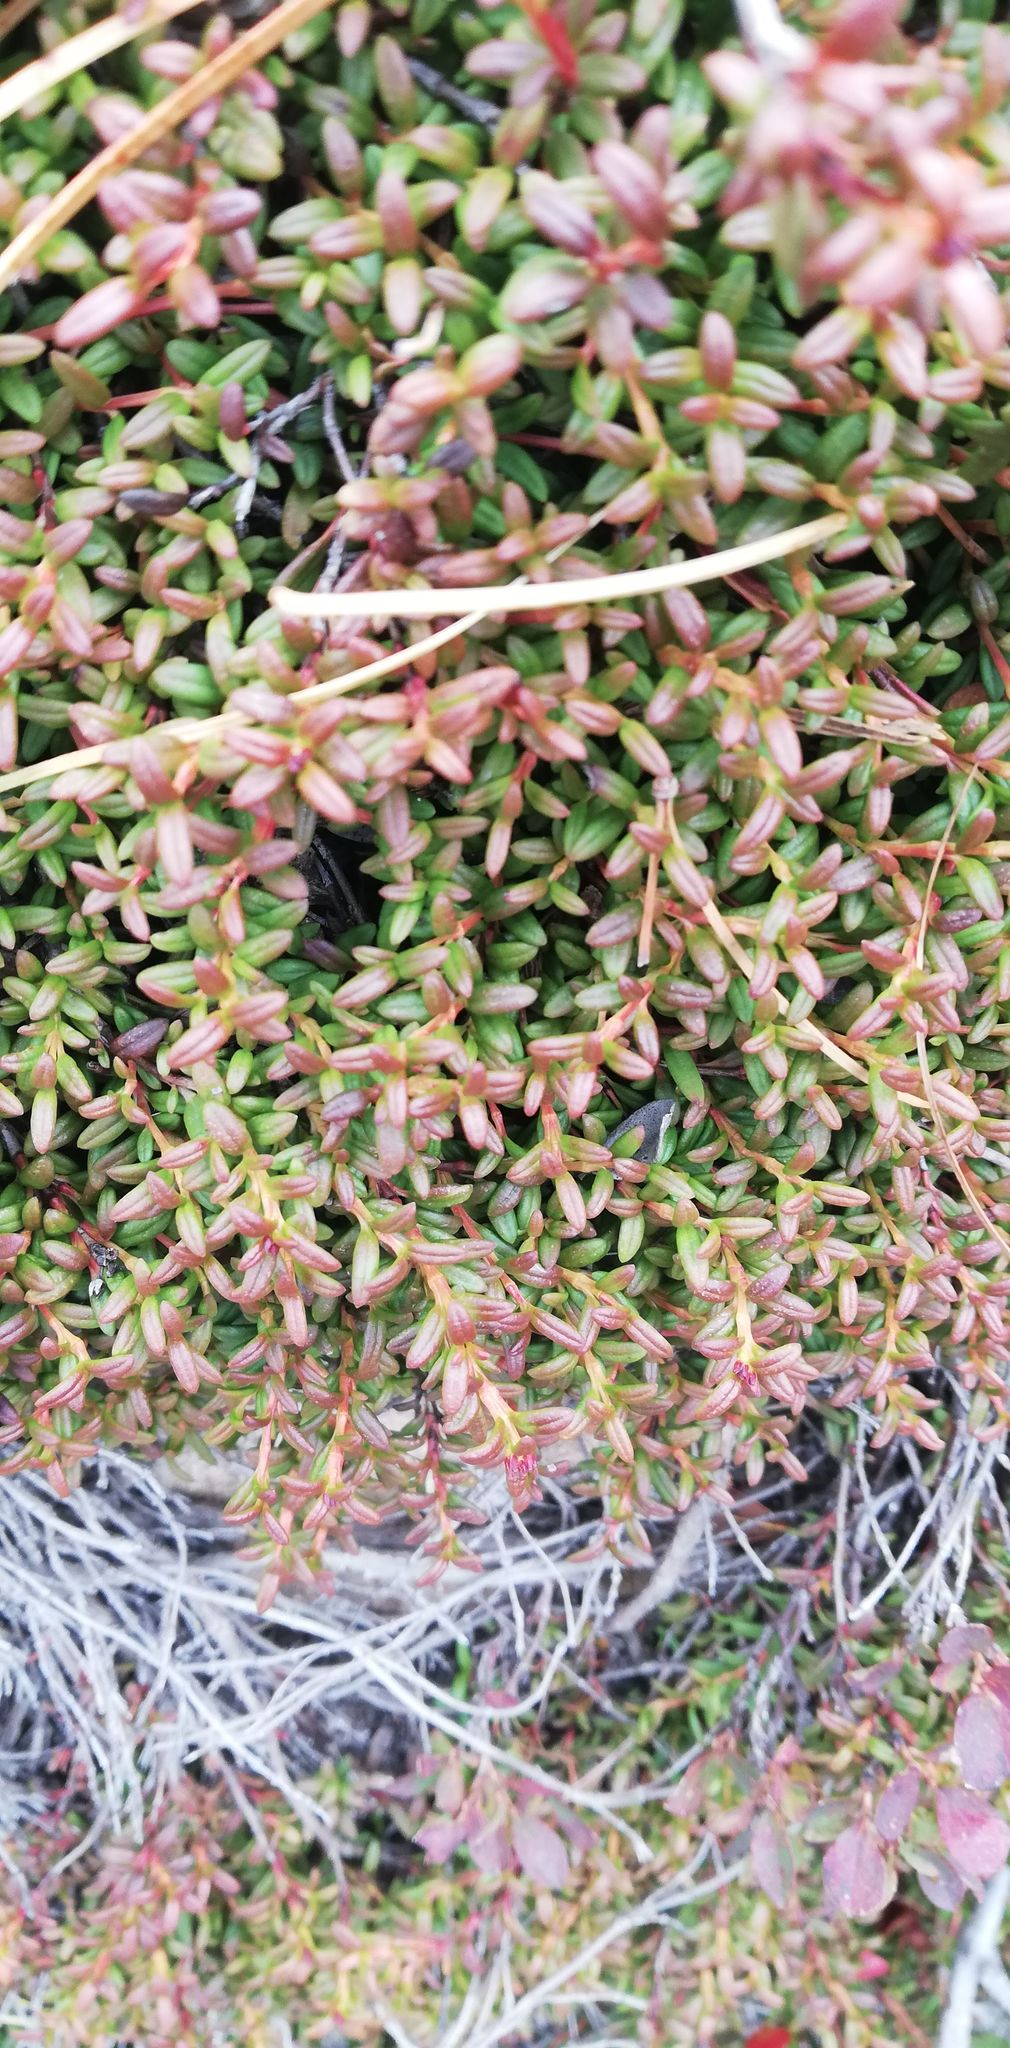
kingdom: Plantae
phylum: Tracheophyta
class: Magnoliopsida
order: Ericales
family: Ericaceae
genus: Kalmia
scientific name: Kalmia procumbens
